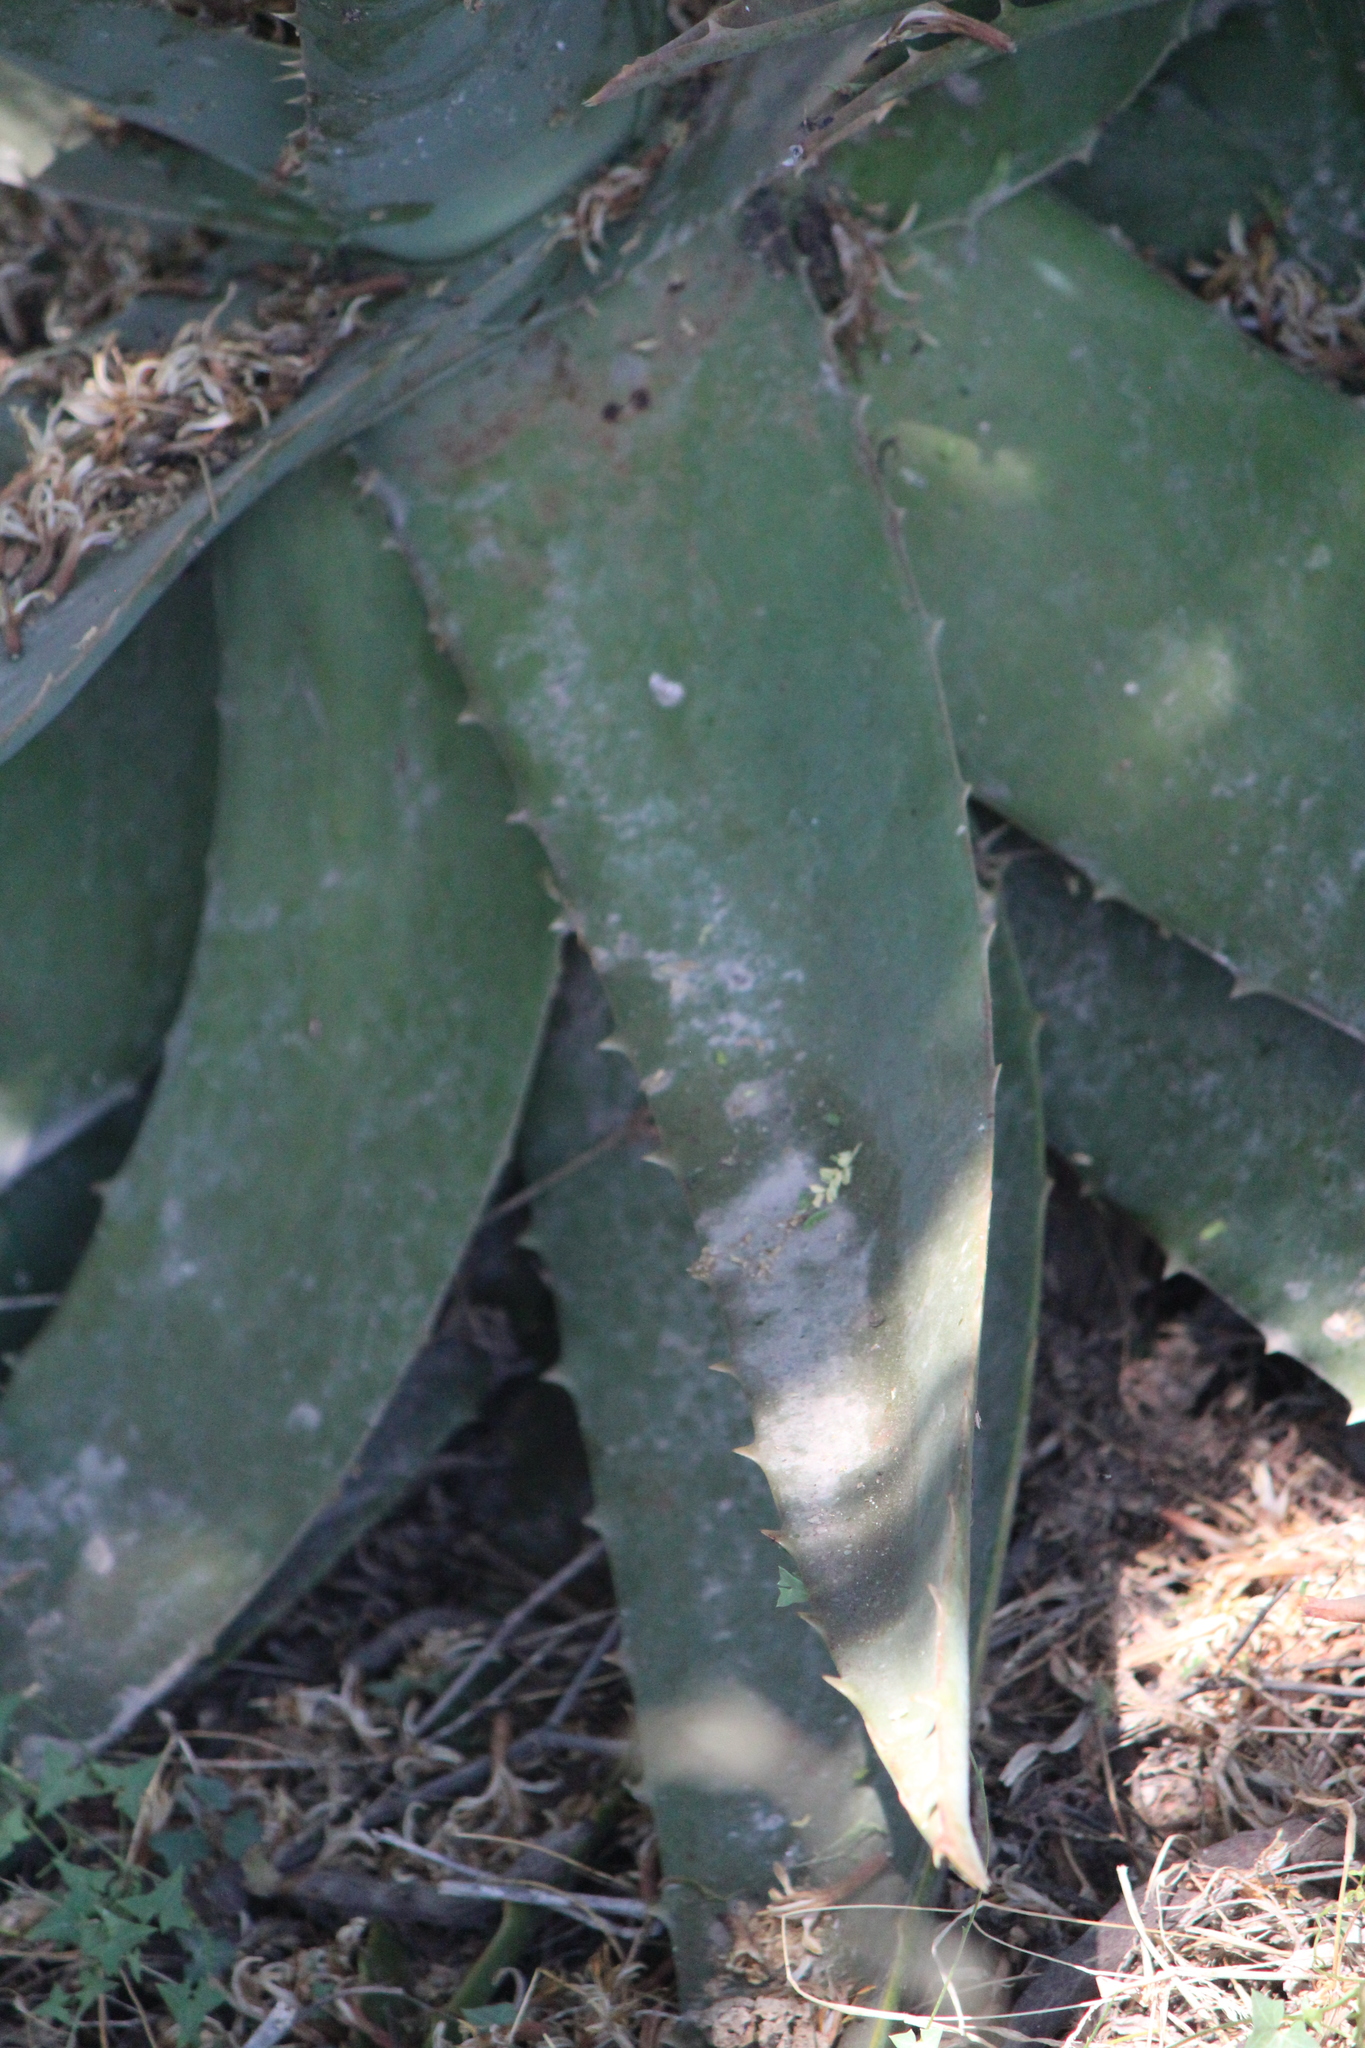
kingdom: Plantae
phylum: Tracheophyta
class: Liliopsida
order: Asparagales
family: Asphodelaceae
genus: Aloe
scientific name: Aloe officinalis
